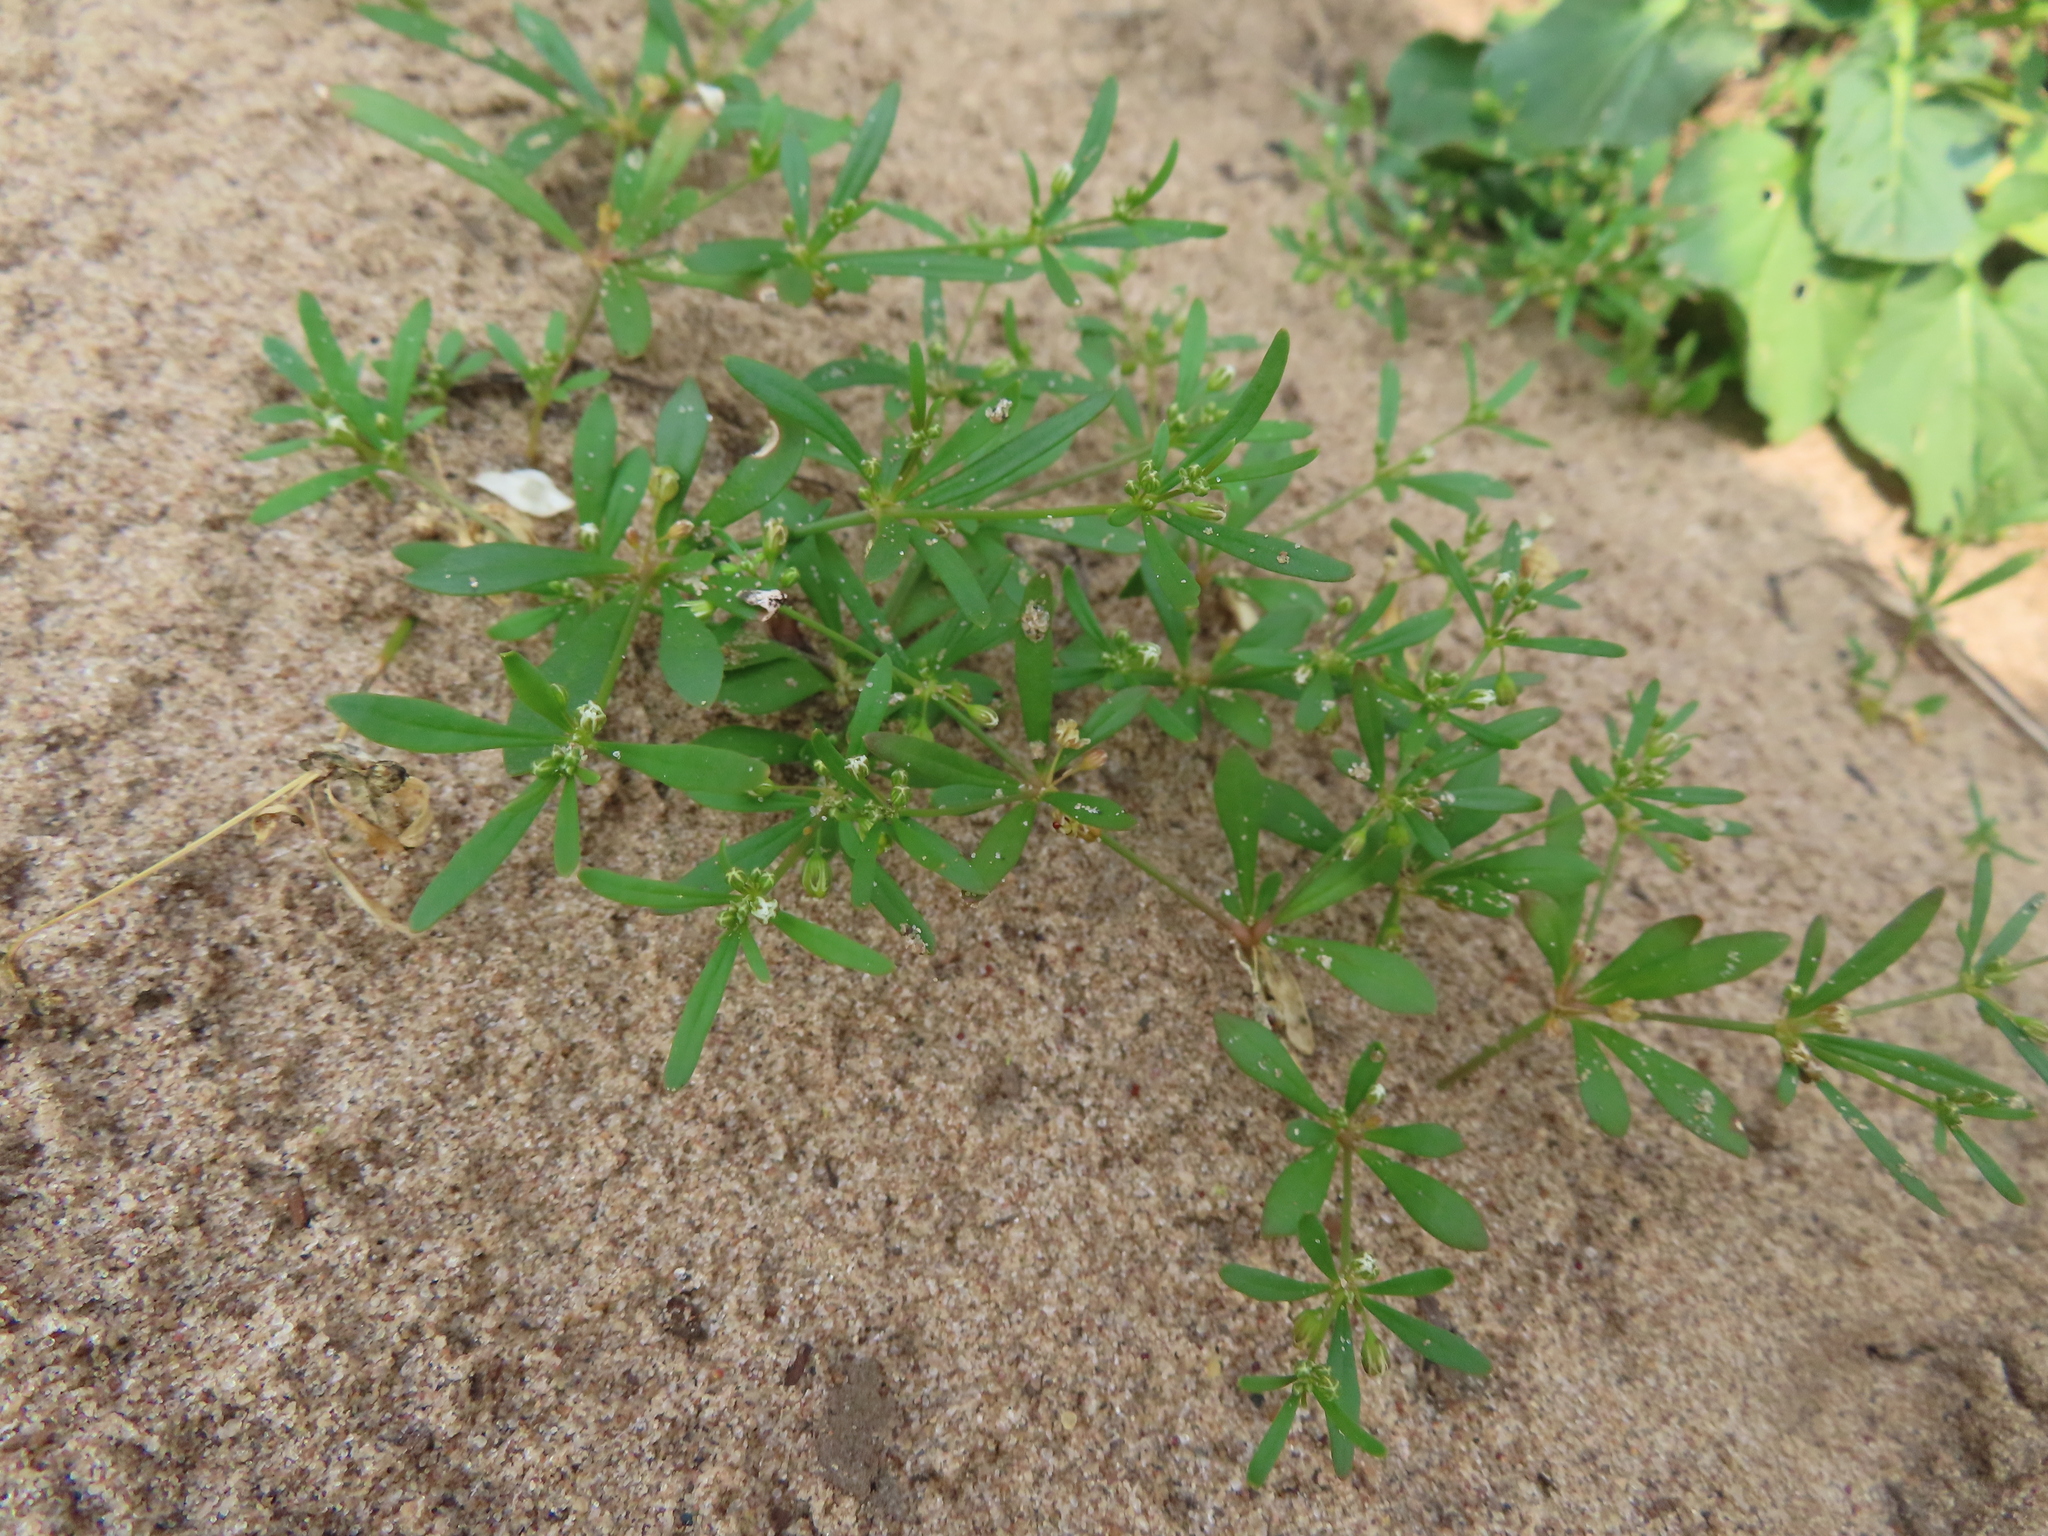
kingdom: Plantae
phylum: Tracheophyta
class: Magnoliopsida
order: Caryophyllales
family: Molluginaceae
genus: Mollugo
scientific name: Mollugo verticillata
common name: Green carpetweed
